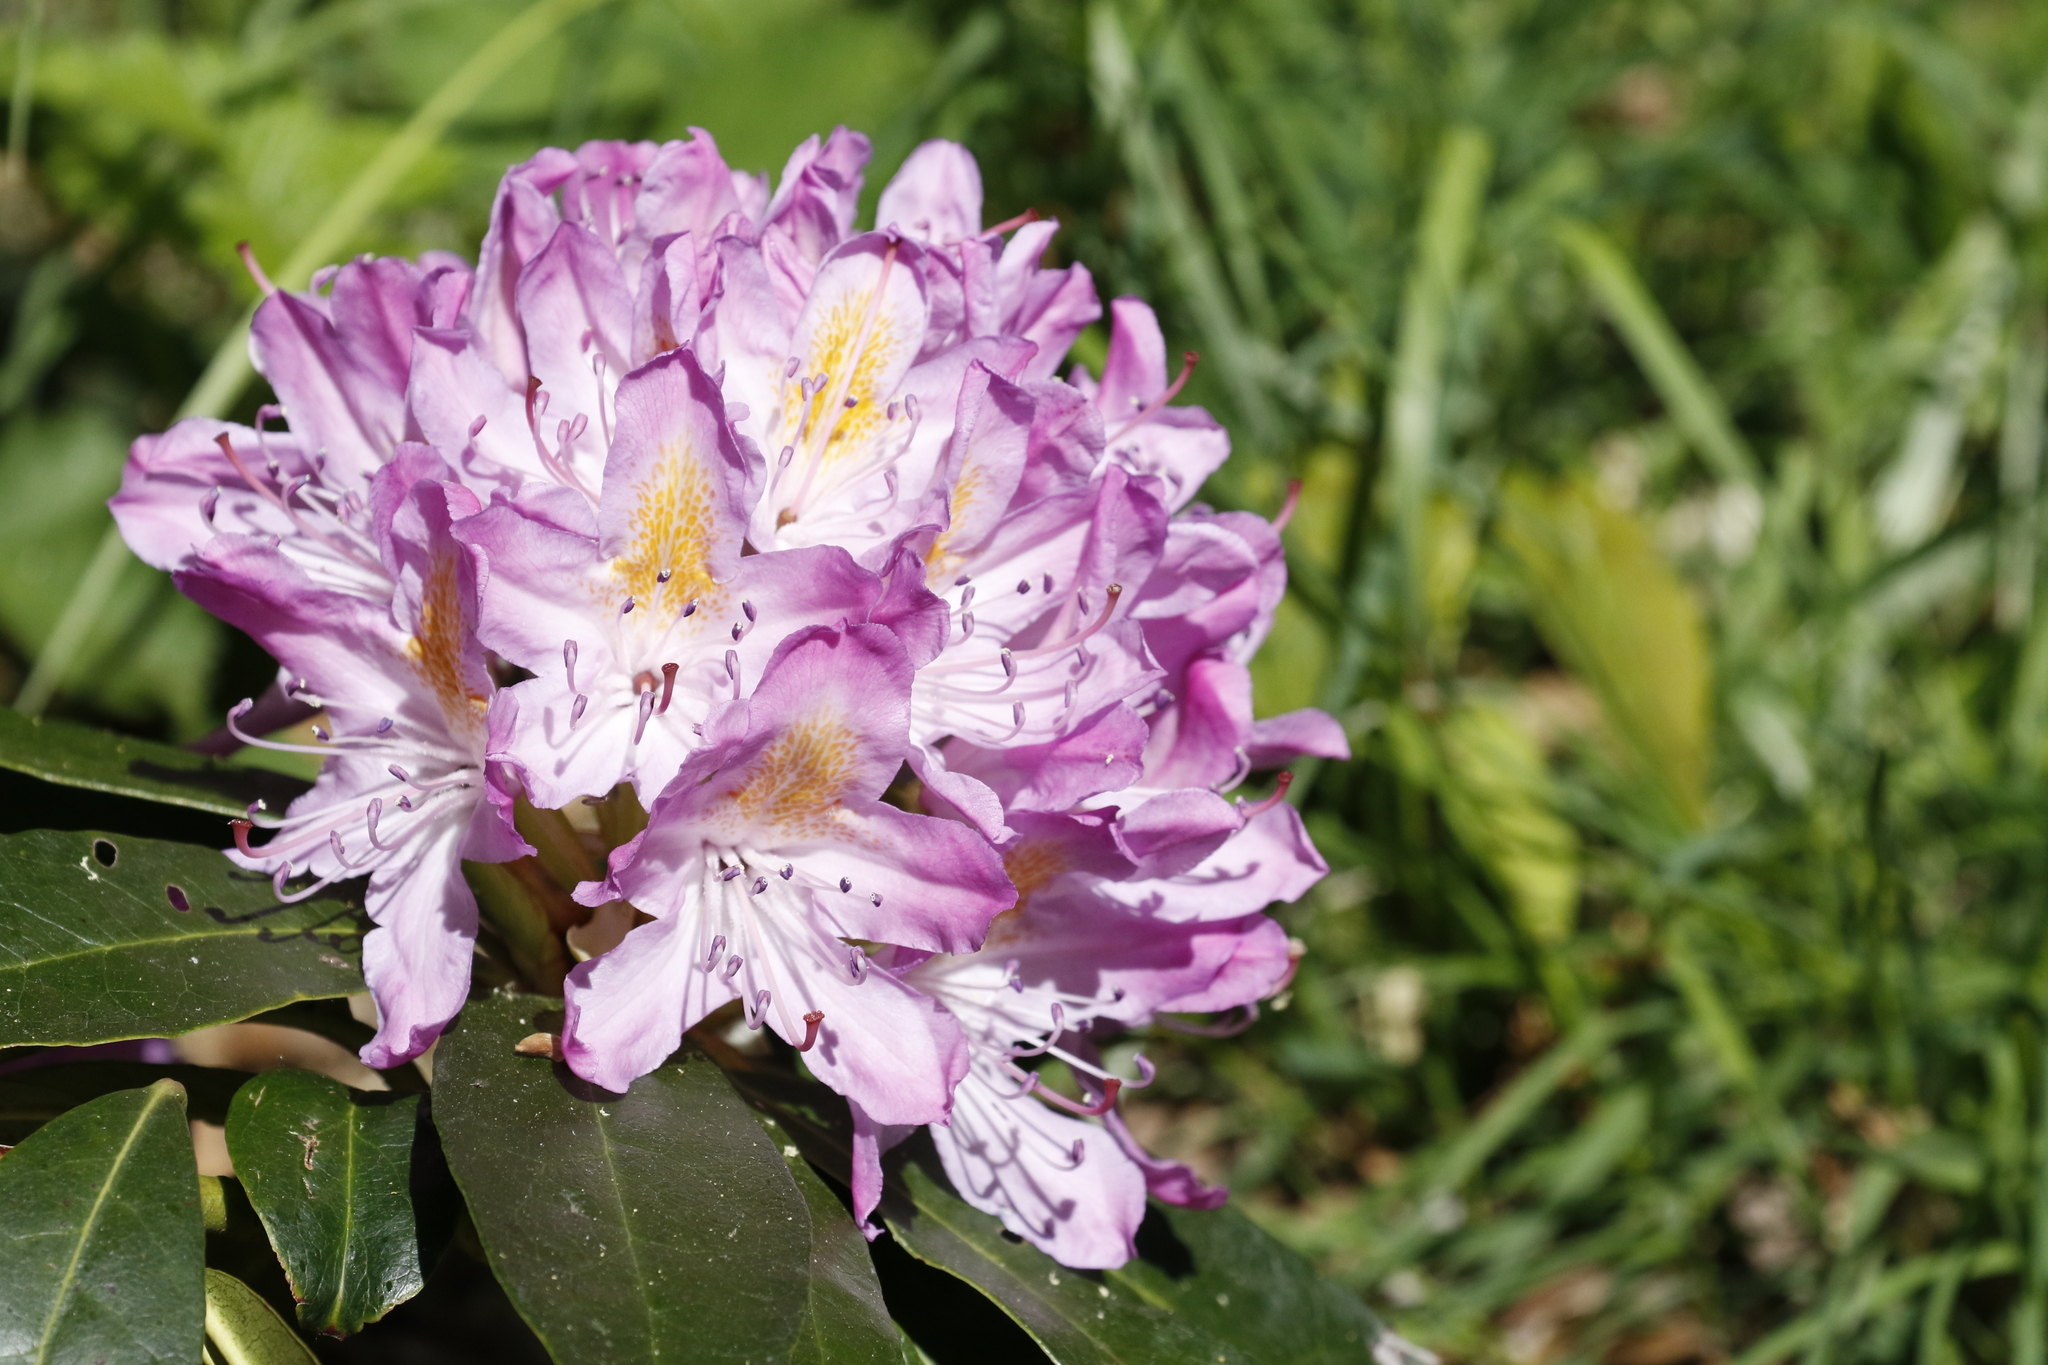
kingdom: Plantae
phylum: Tracheophyta
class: Magnoliopsida
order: Ericales
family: Ericaceae
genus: Rhododendron
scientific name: Rhododendron ponticum
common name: Rhododendron
